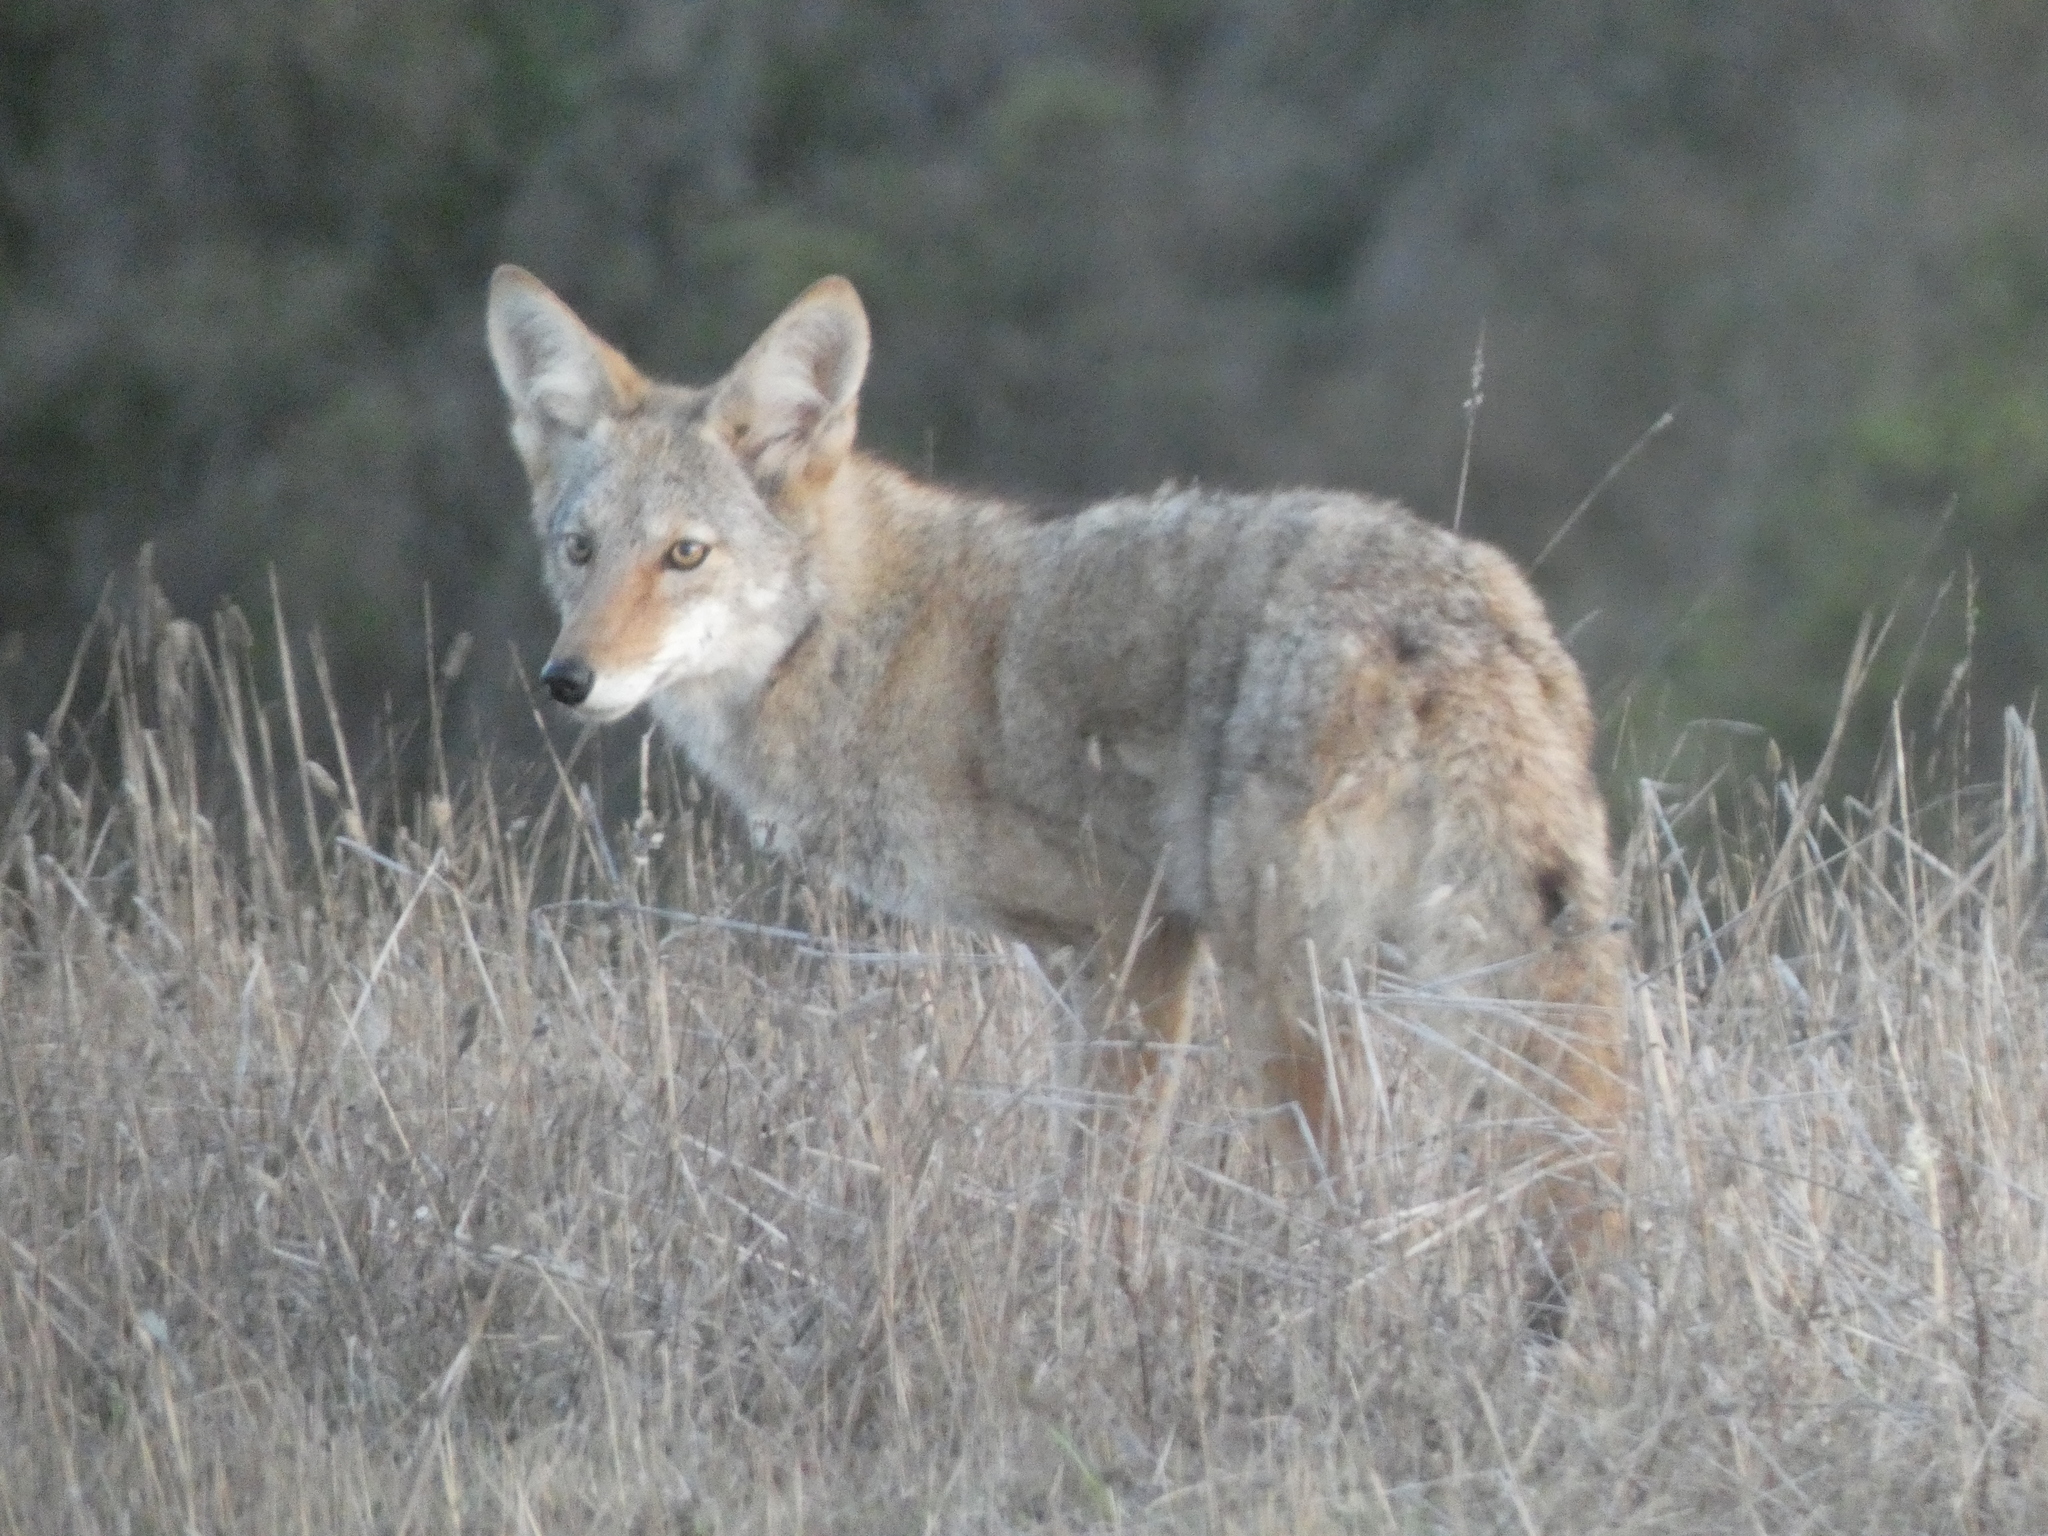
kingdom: Animalia
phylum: Chordata
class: Mammalia
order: Carnivora
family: Canidae
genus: Canis
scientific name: Canis latrans
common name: Coyote
